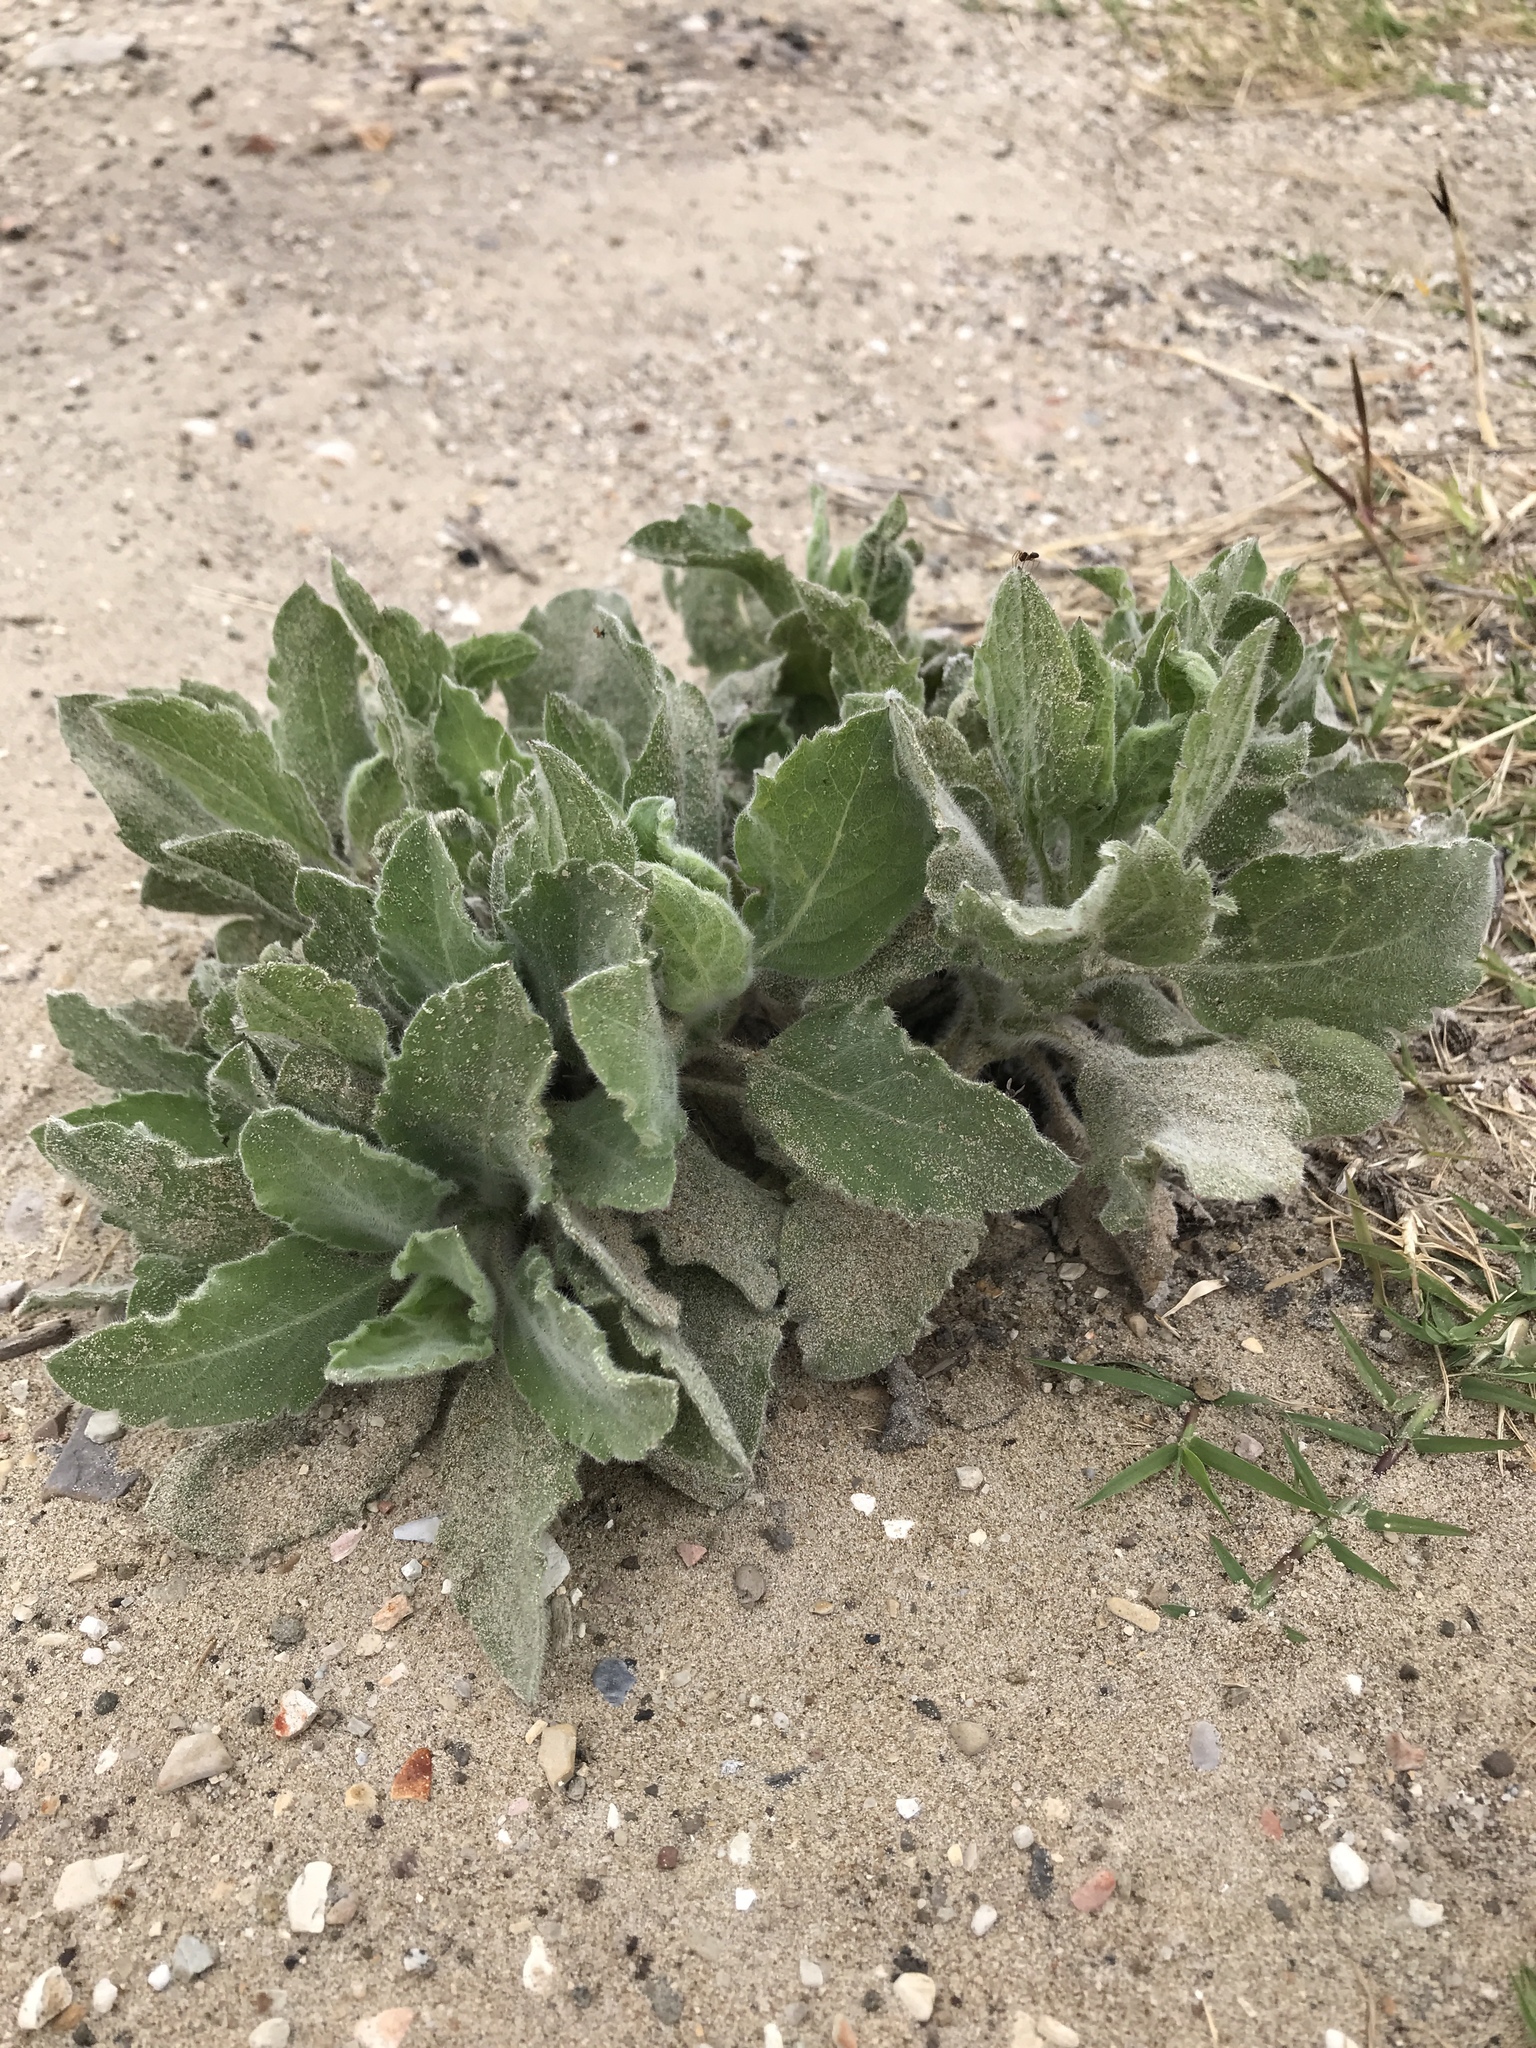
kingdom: Plantae
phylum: Tracheophyta
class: Magnoliopsida
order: Asterales
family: Asteraceae
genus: Heterotheca
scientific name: Heterotheca grandiflora
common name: Telegraphweed
